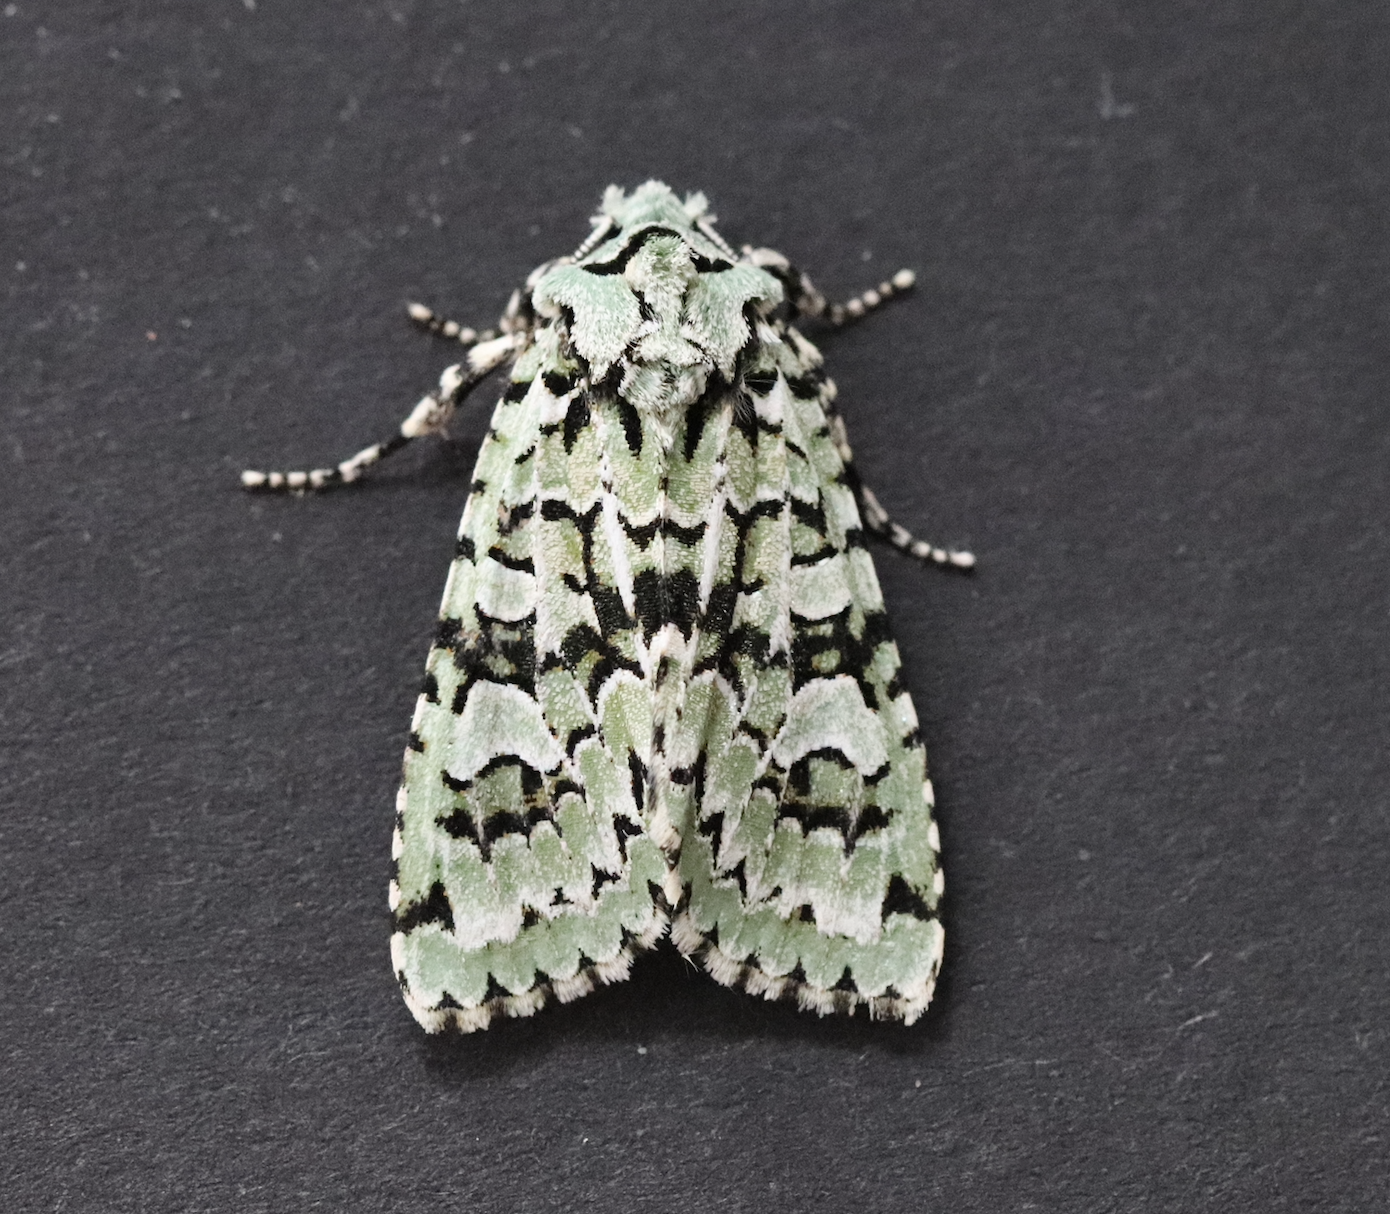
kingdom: Animalia
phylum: Arthropoda
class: Insecta
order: Lepidoptera
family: Noctuidae
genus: Griposia
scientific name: Griposia aprilina
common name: Merveille du jour
